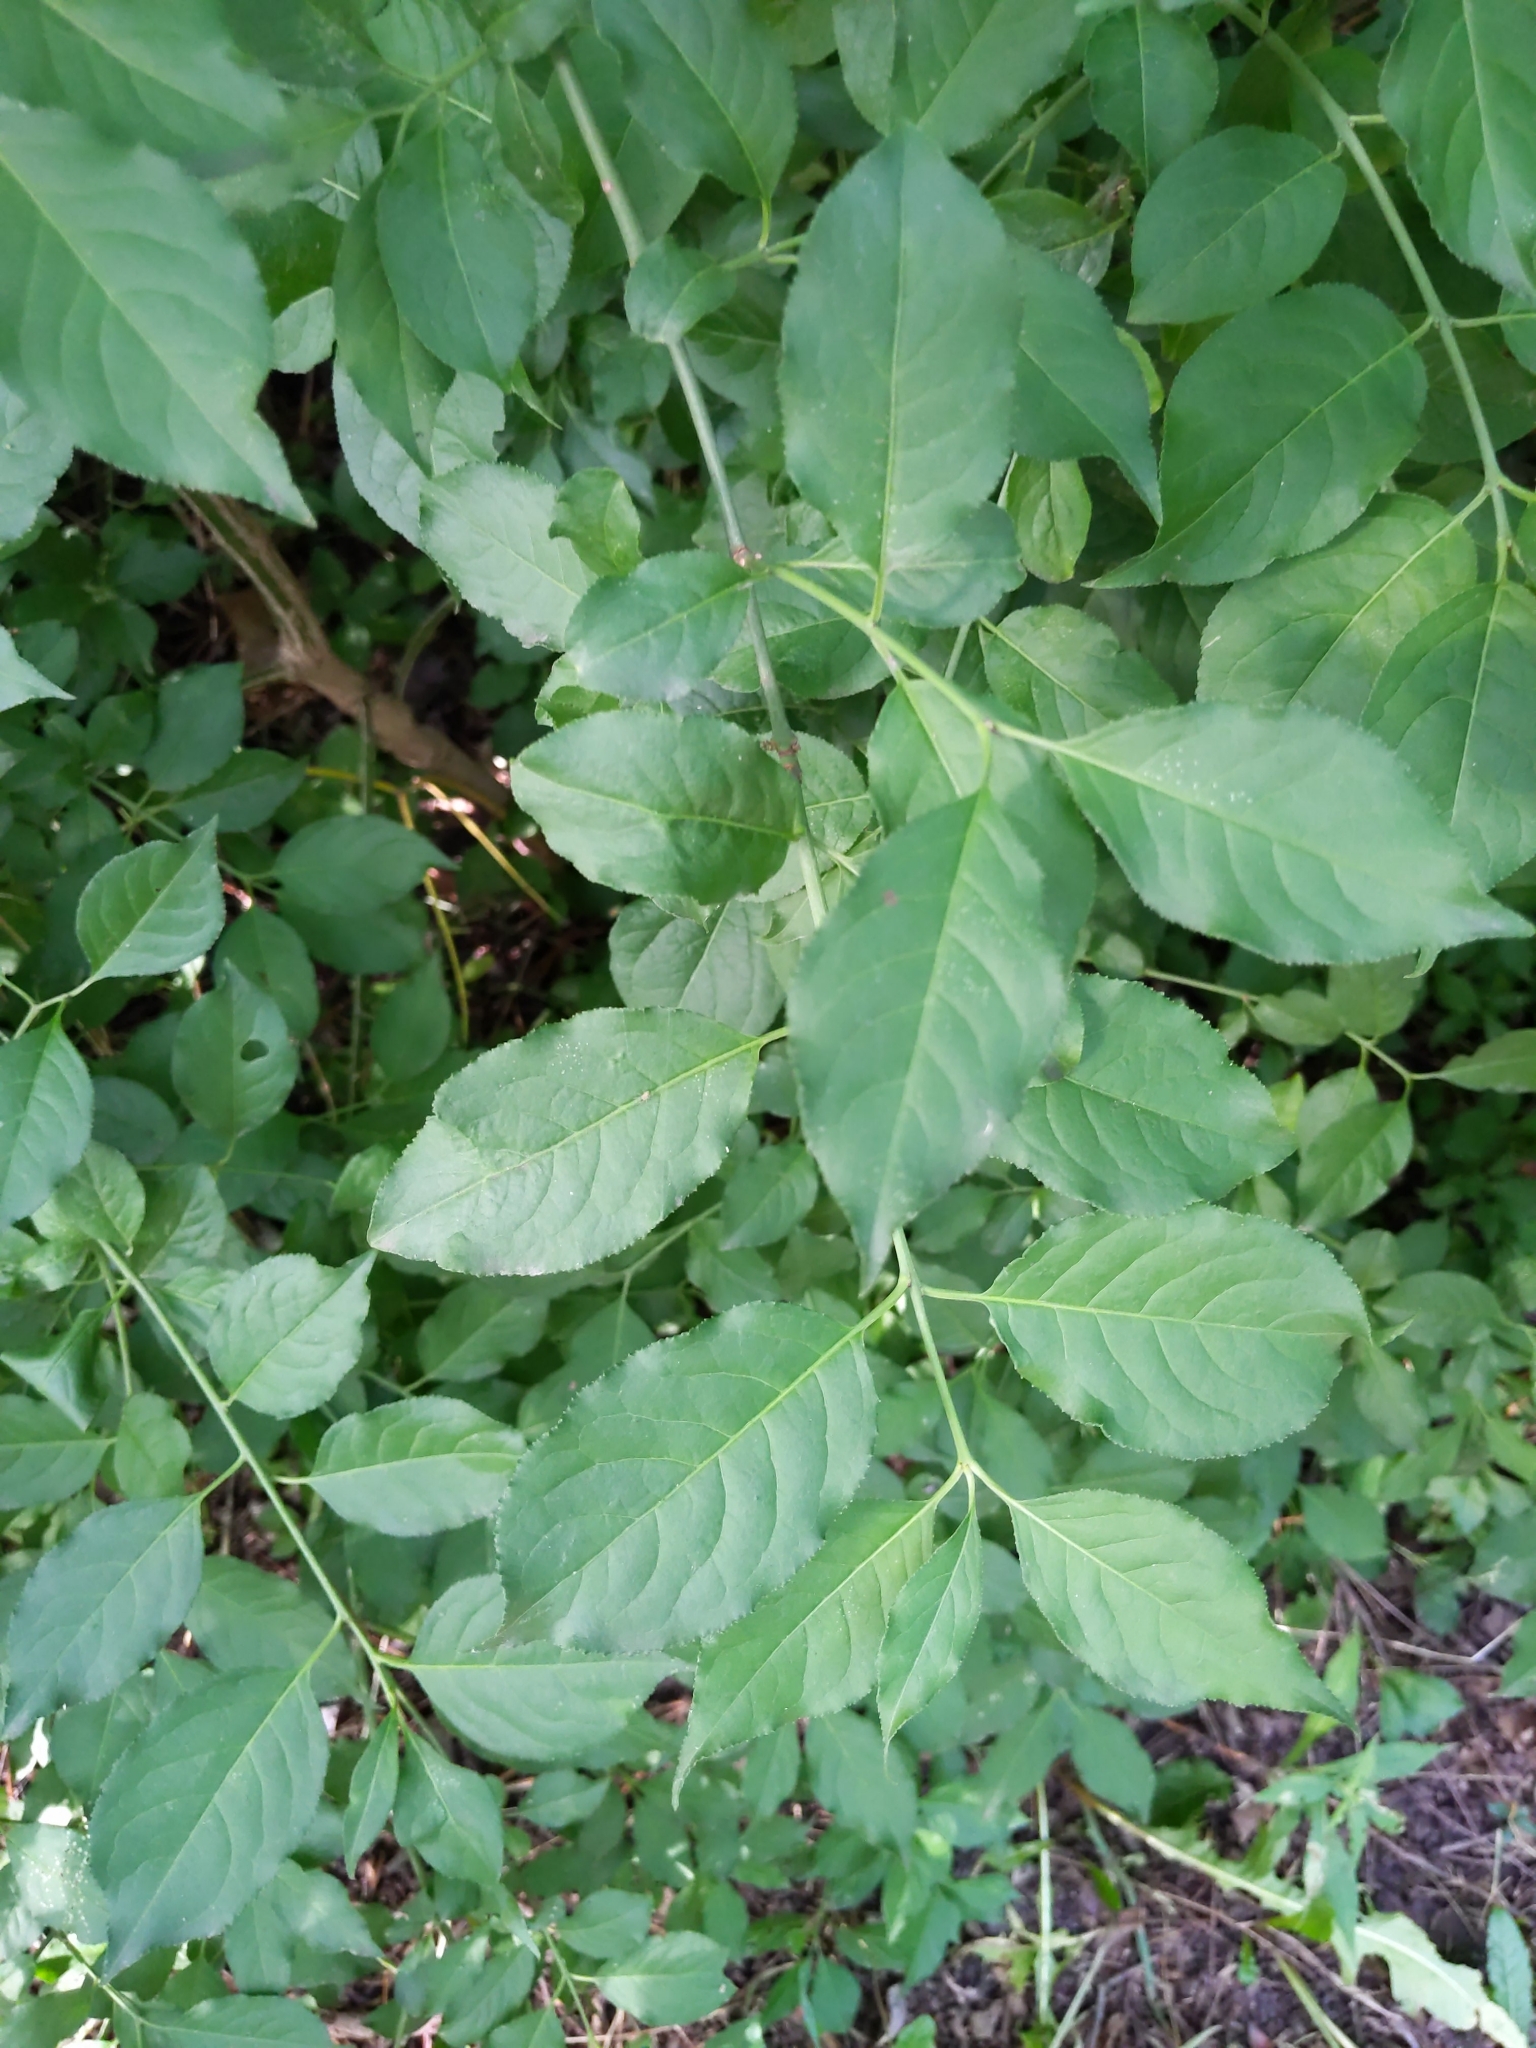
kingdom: Plantae
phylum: Tracheophyta
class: Magnoliopsida
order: Celastrales
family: Celastraceae
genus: Euonymus
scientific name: Euonymus europaeus
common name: Spindle
